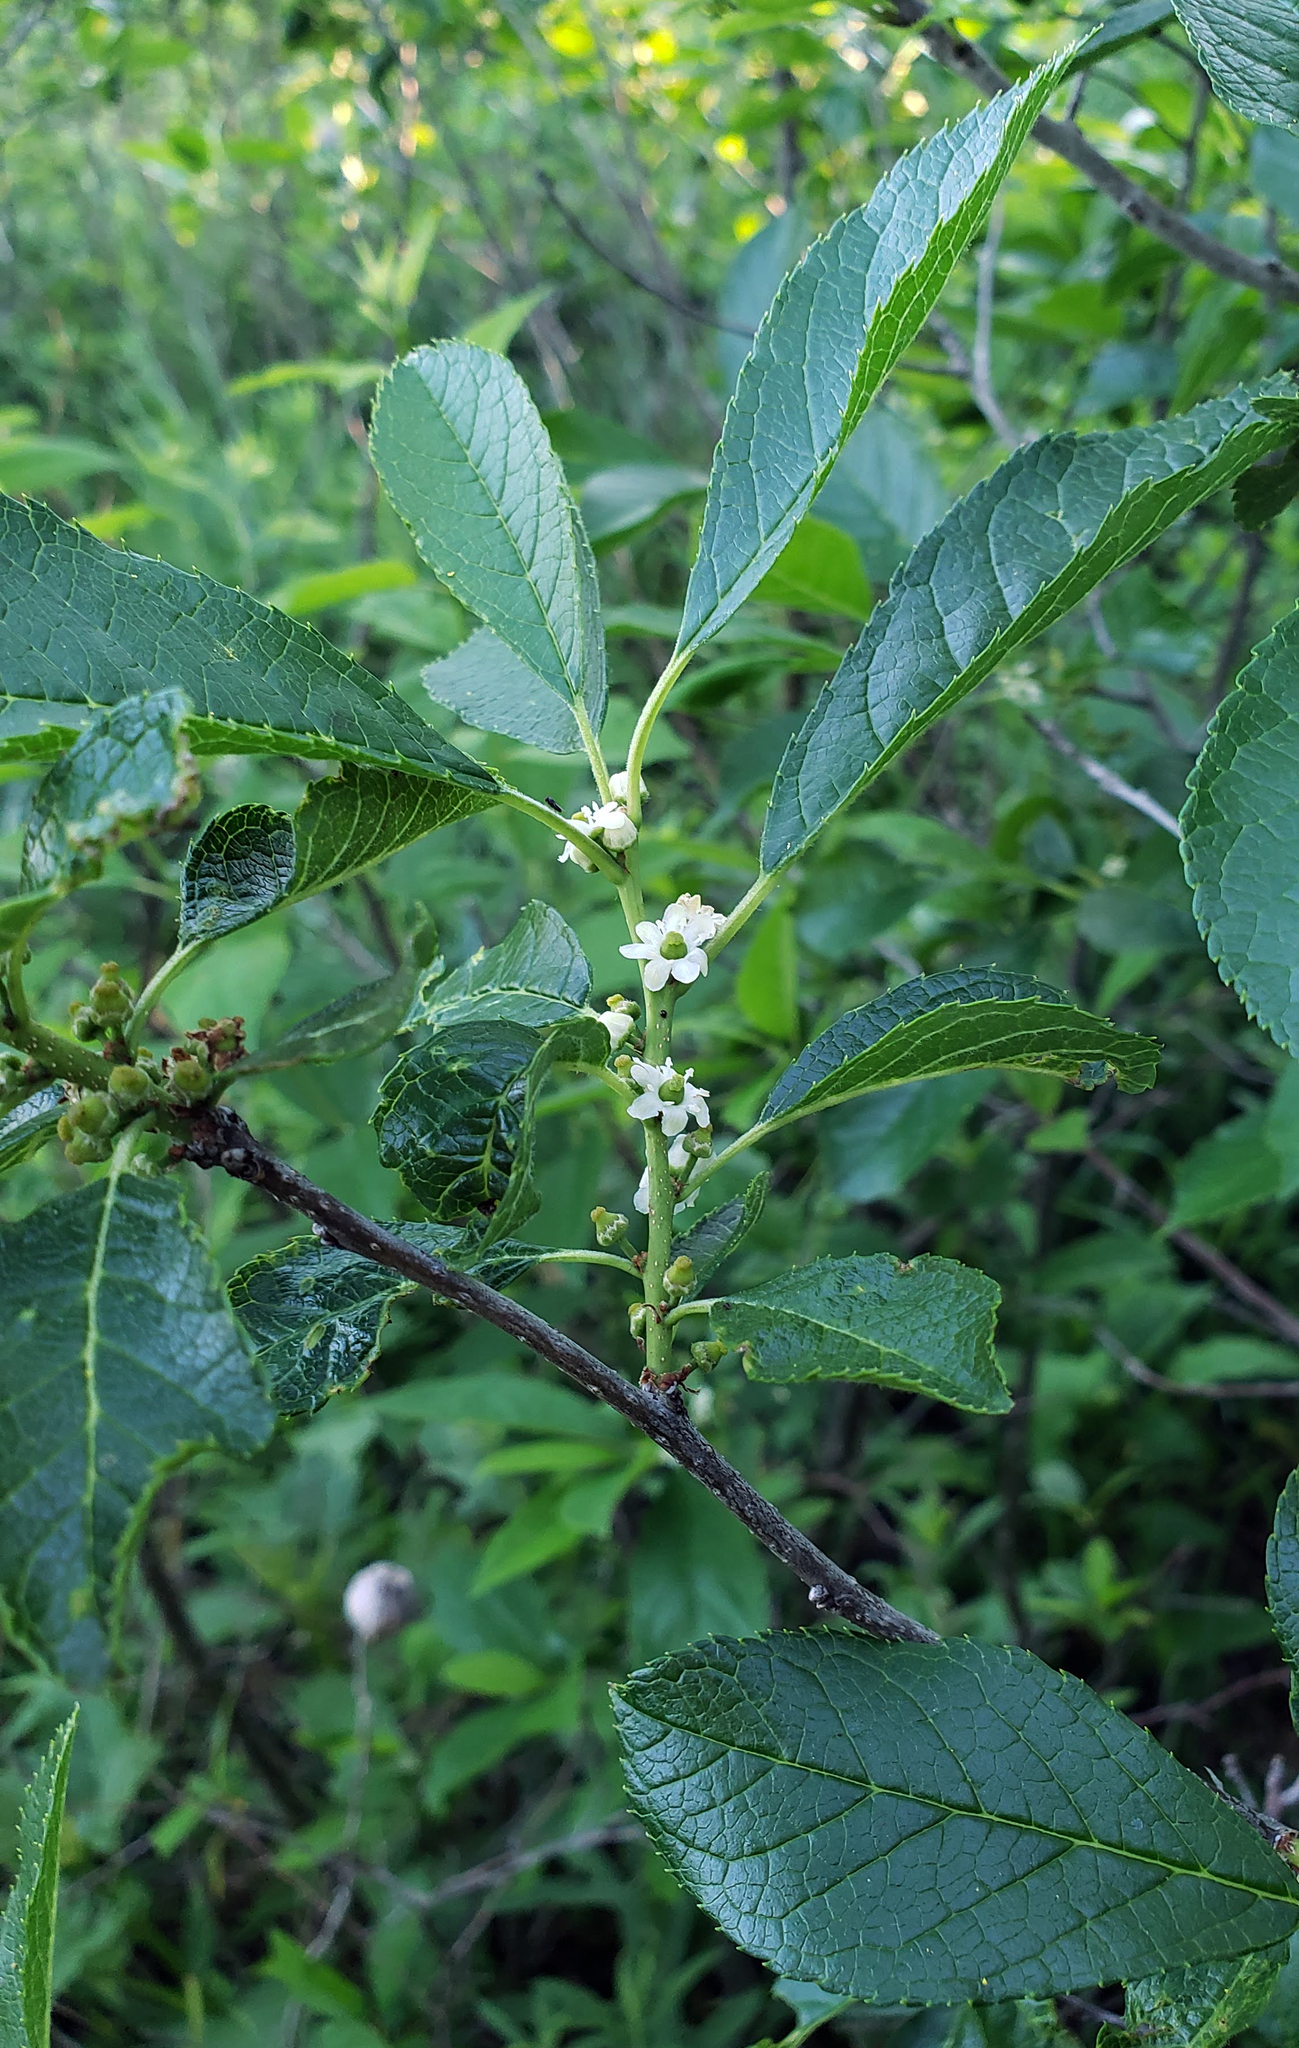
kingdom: Plantae
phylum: Tracheophyta
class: Magnoliopsida
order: Aquifoliales
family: Aquifoliaceae
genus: Ilex
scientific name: Ilex verticillata
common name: Virginia winterberry
